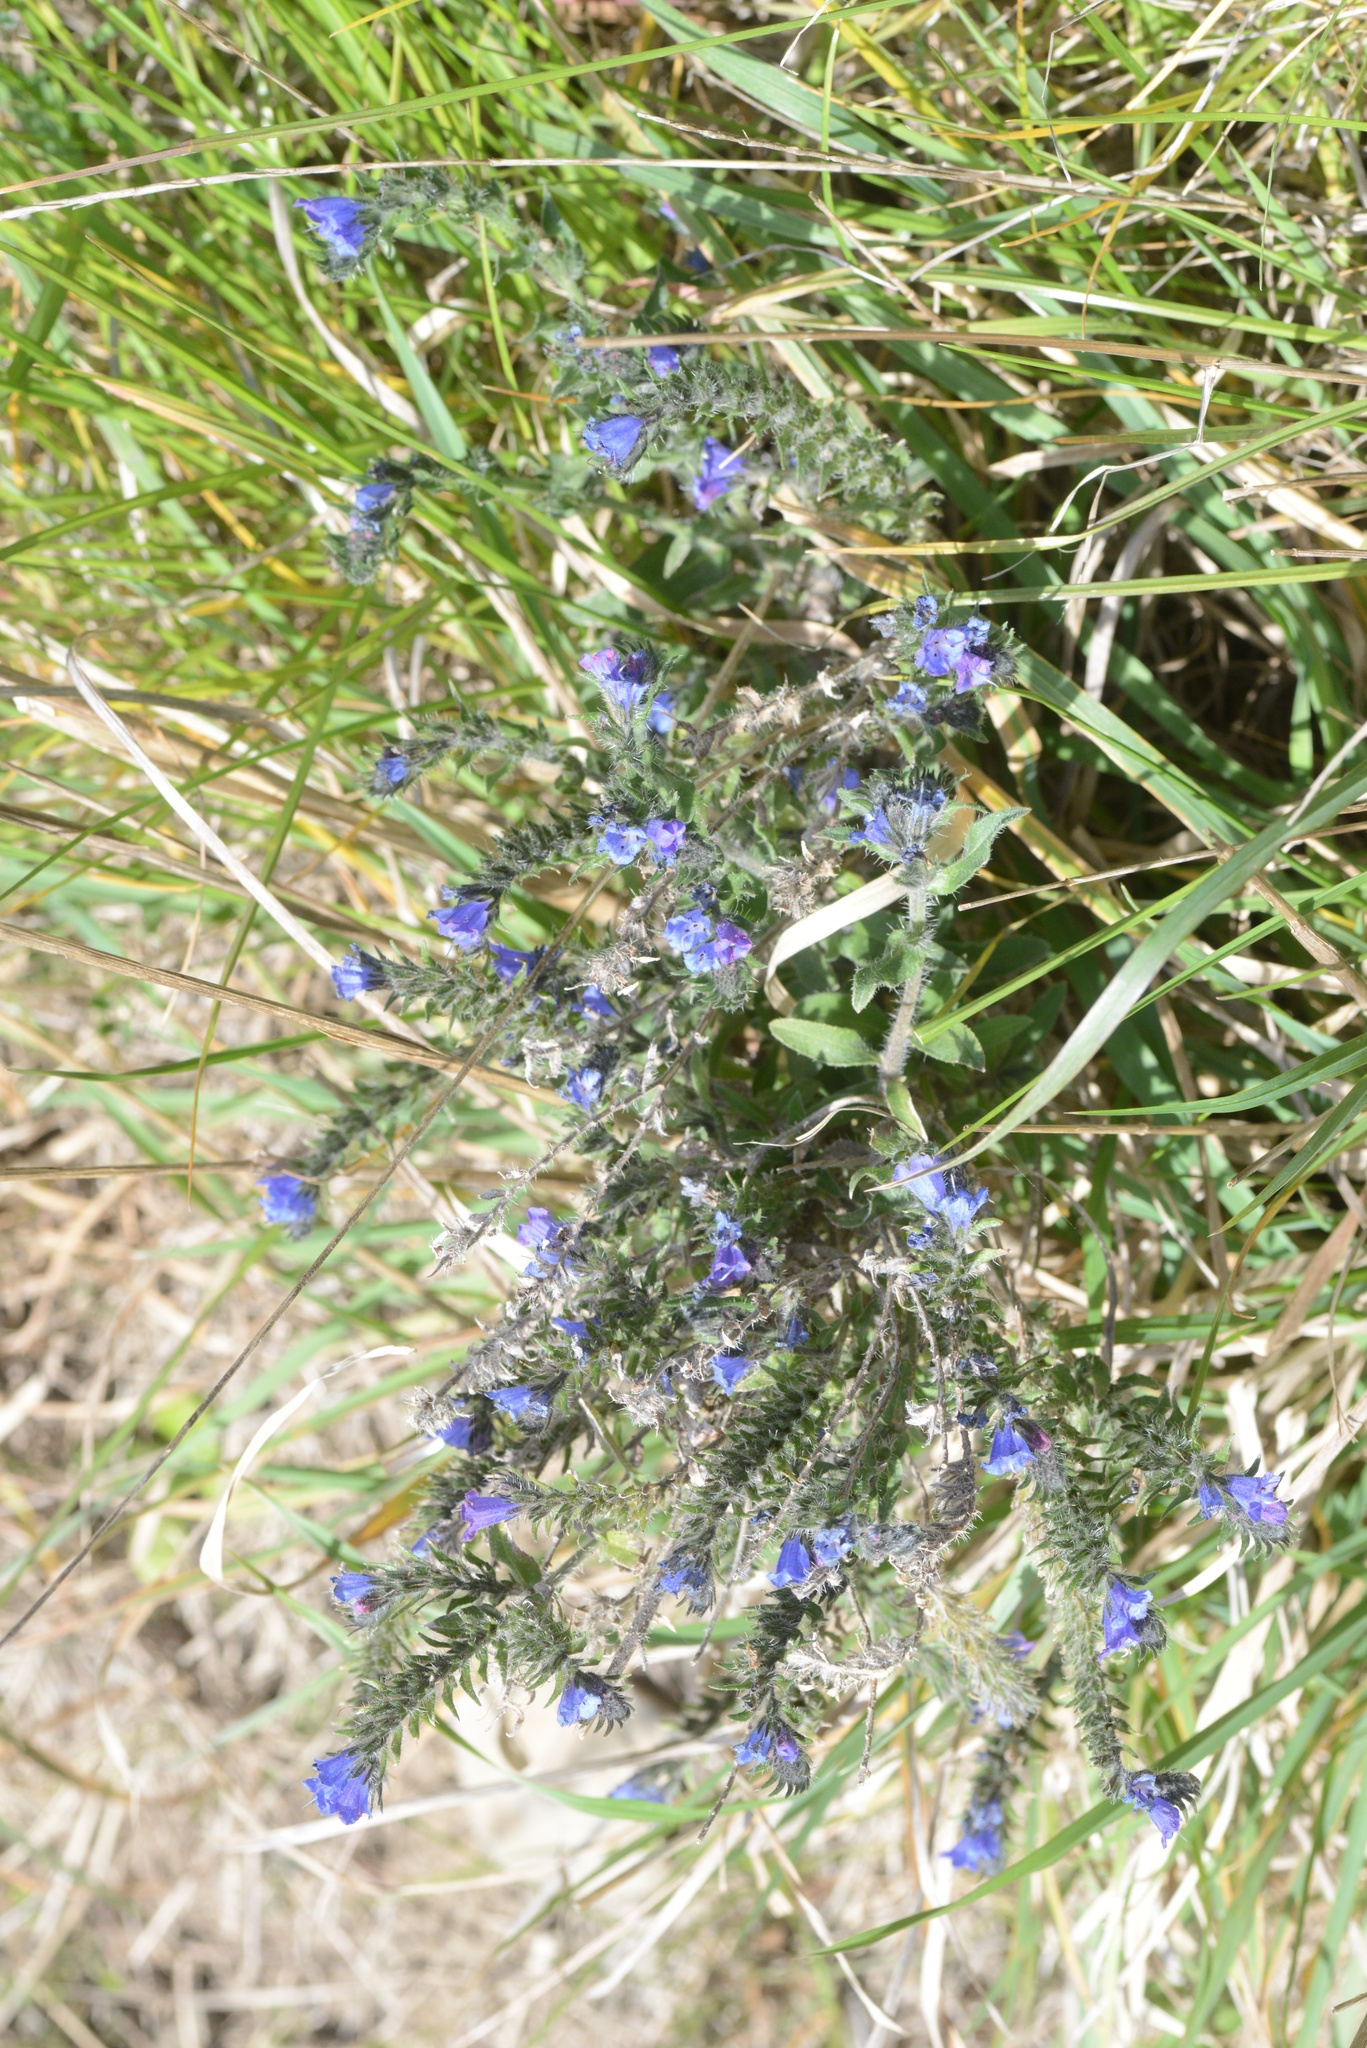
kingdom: Plantae
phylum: Tracheophyta
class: Magnoliopsida
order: Boraginales
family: Boraginaceae
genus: Echium
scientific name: Echium vulgare
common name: Common viper's bugloss
